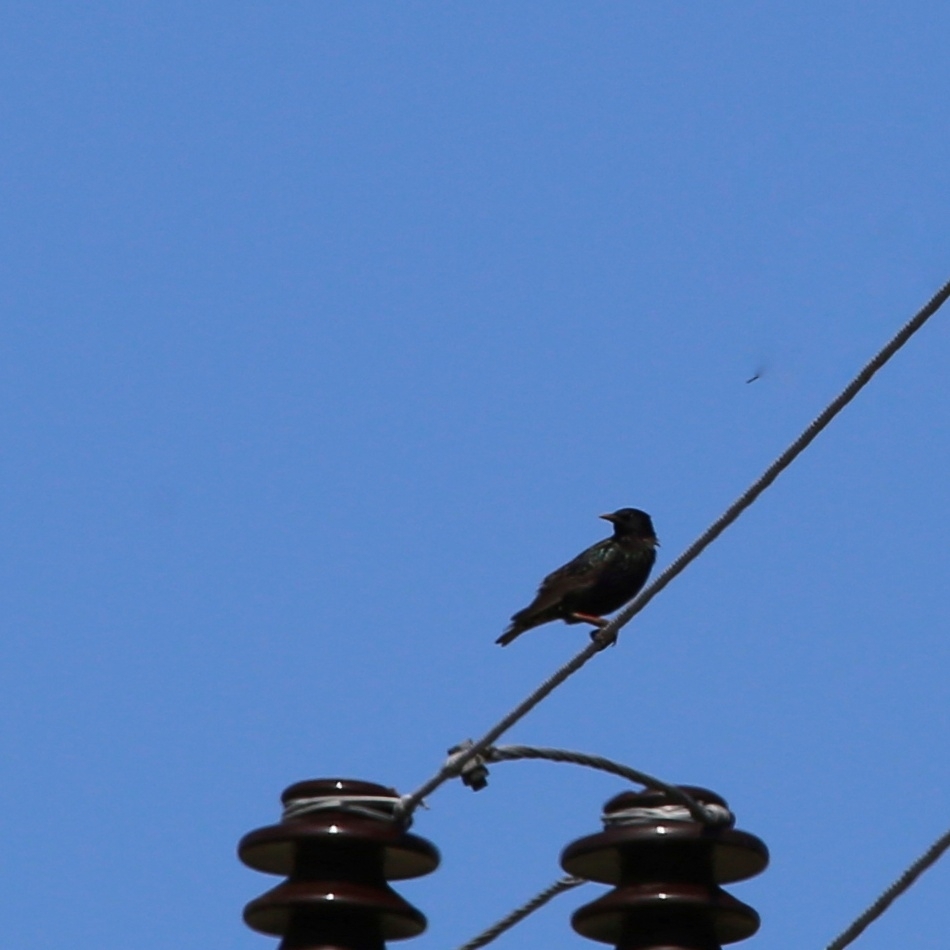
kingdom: Animalia
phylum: Chordata
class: Aves
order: Passeriformes
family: Sturnidae
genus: Sturnus
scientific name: Sturnus vulgaris
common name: Common starling
